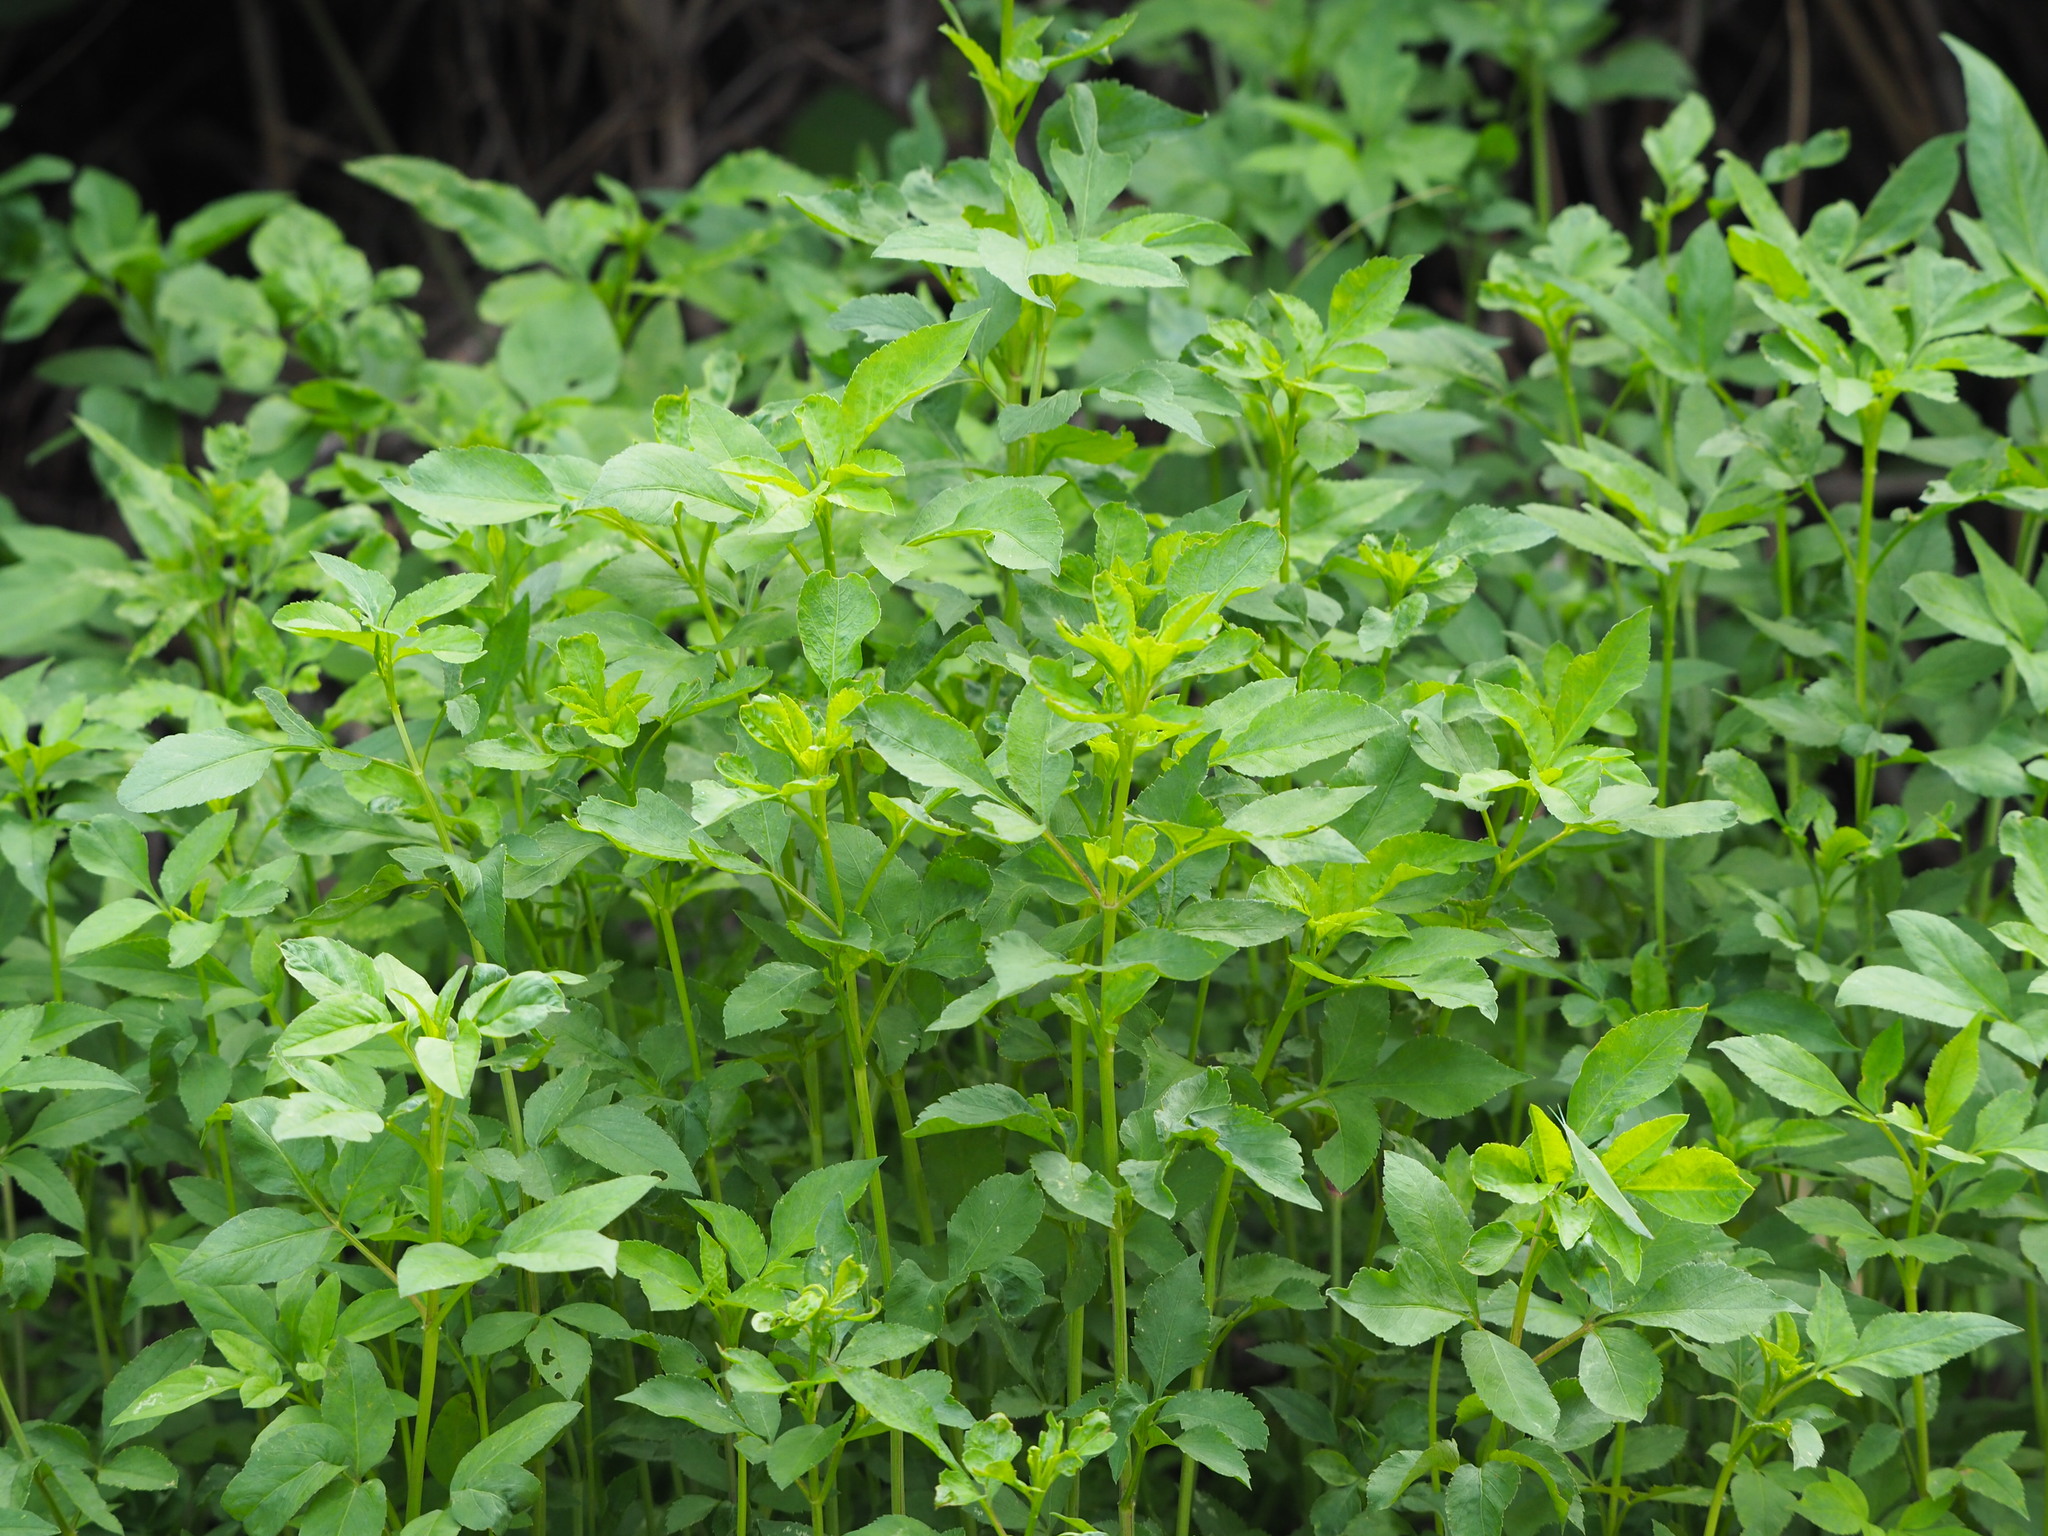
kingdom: Plantae
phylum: Tracheophyta
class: Magnoliopsida
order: Asterales
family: Asteraceae
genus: Bidens
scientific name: Bidens alba
